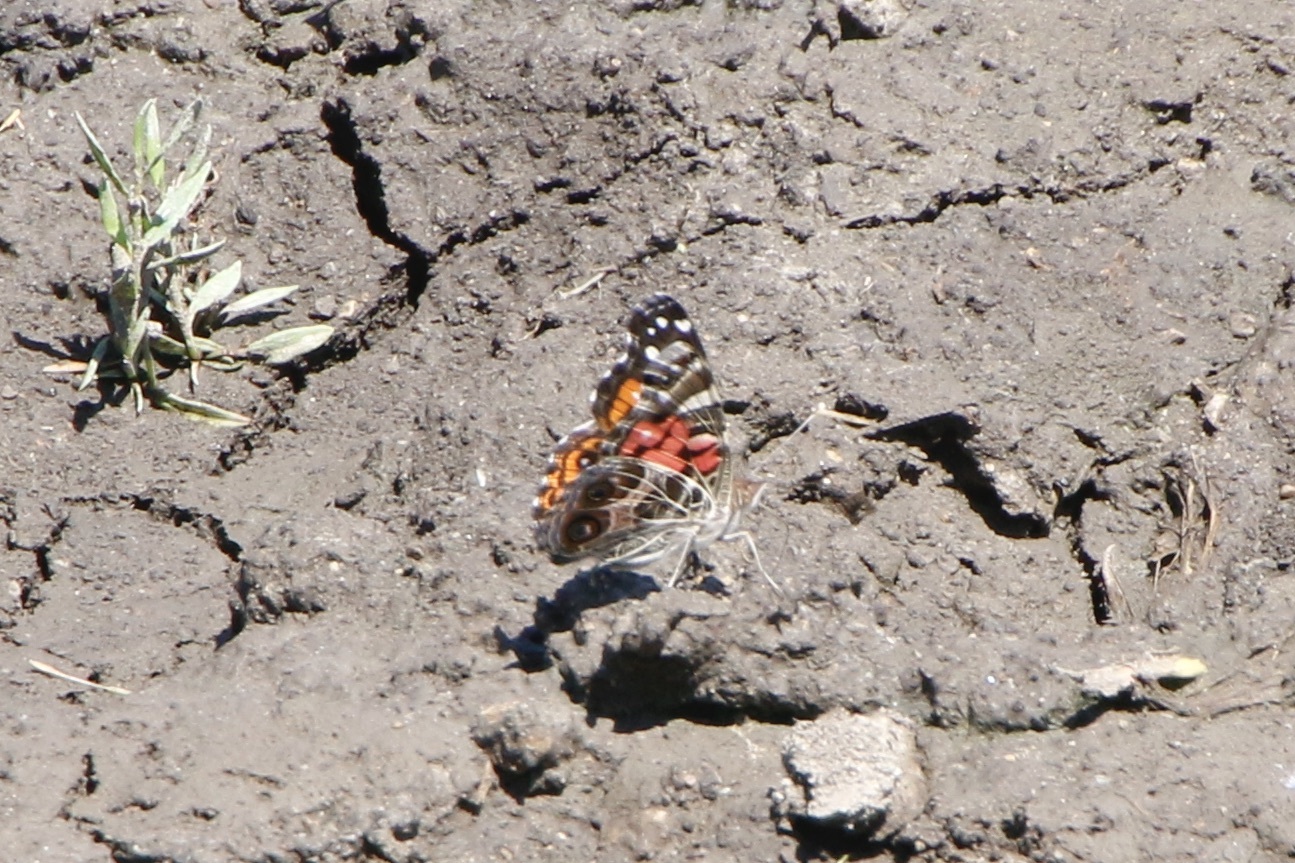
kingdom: Animalia
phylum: Arthropoda
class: Insecta
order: Lepidoptera
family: Nymphalidae
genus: Vanessa
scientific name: Vanessa virginiensis
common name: American lady
